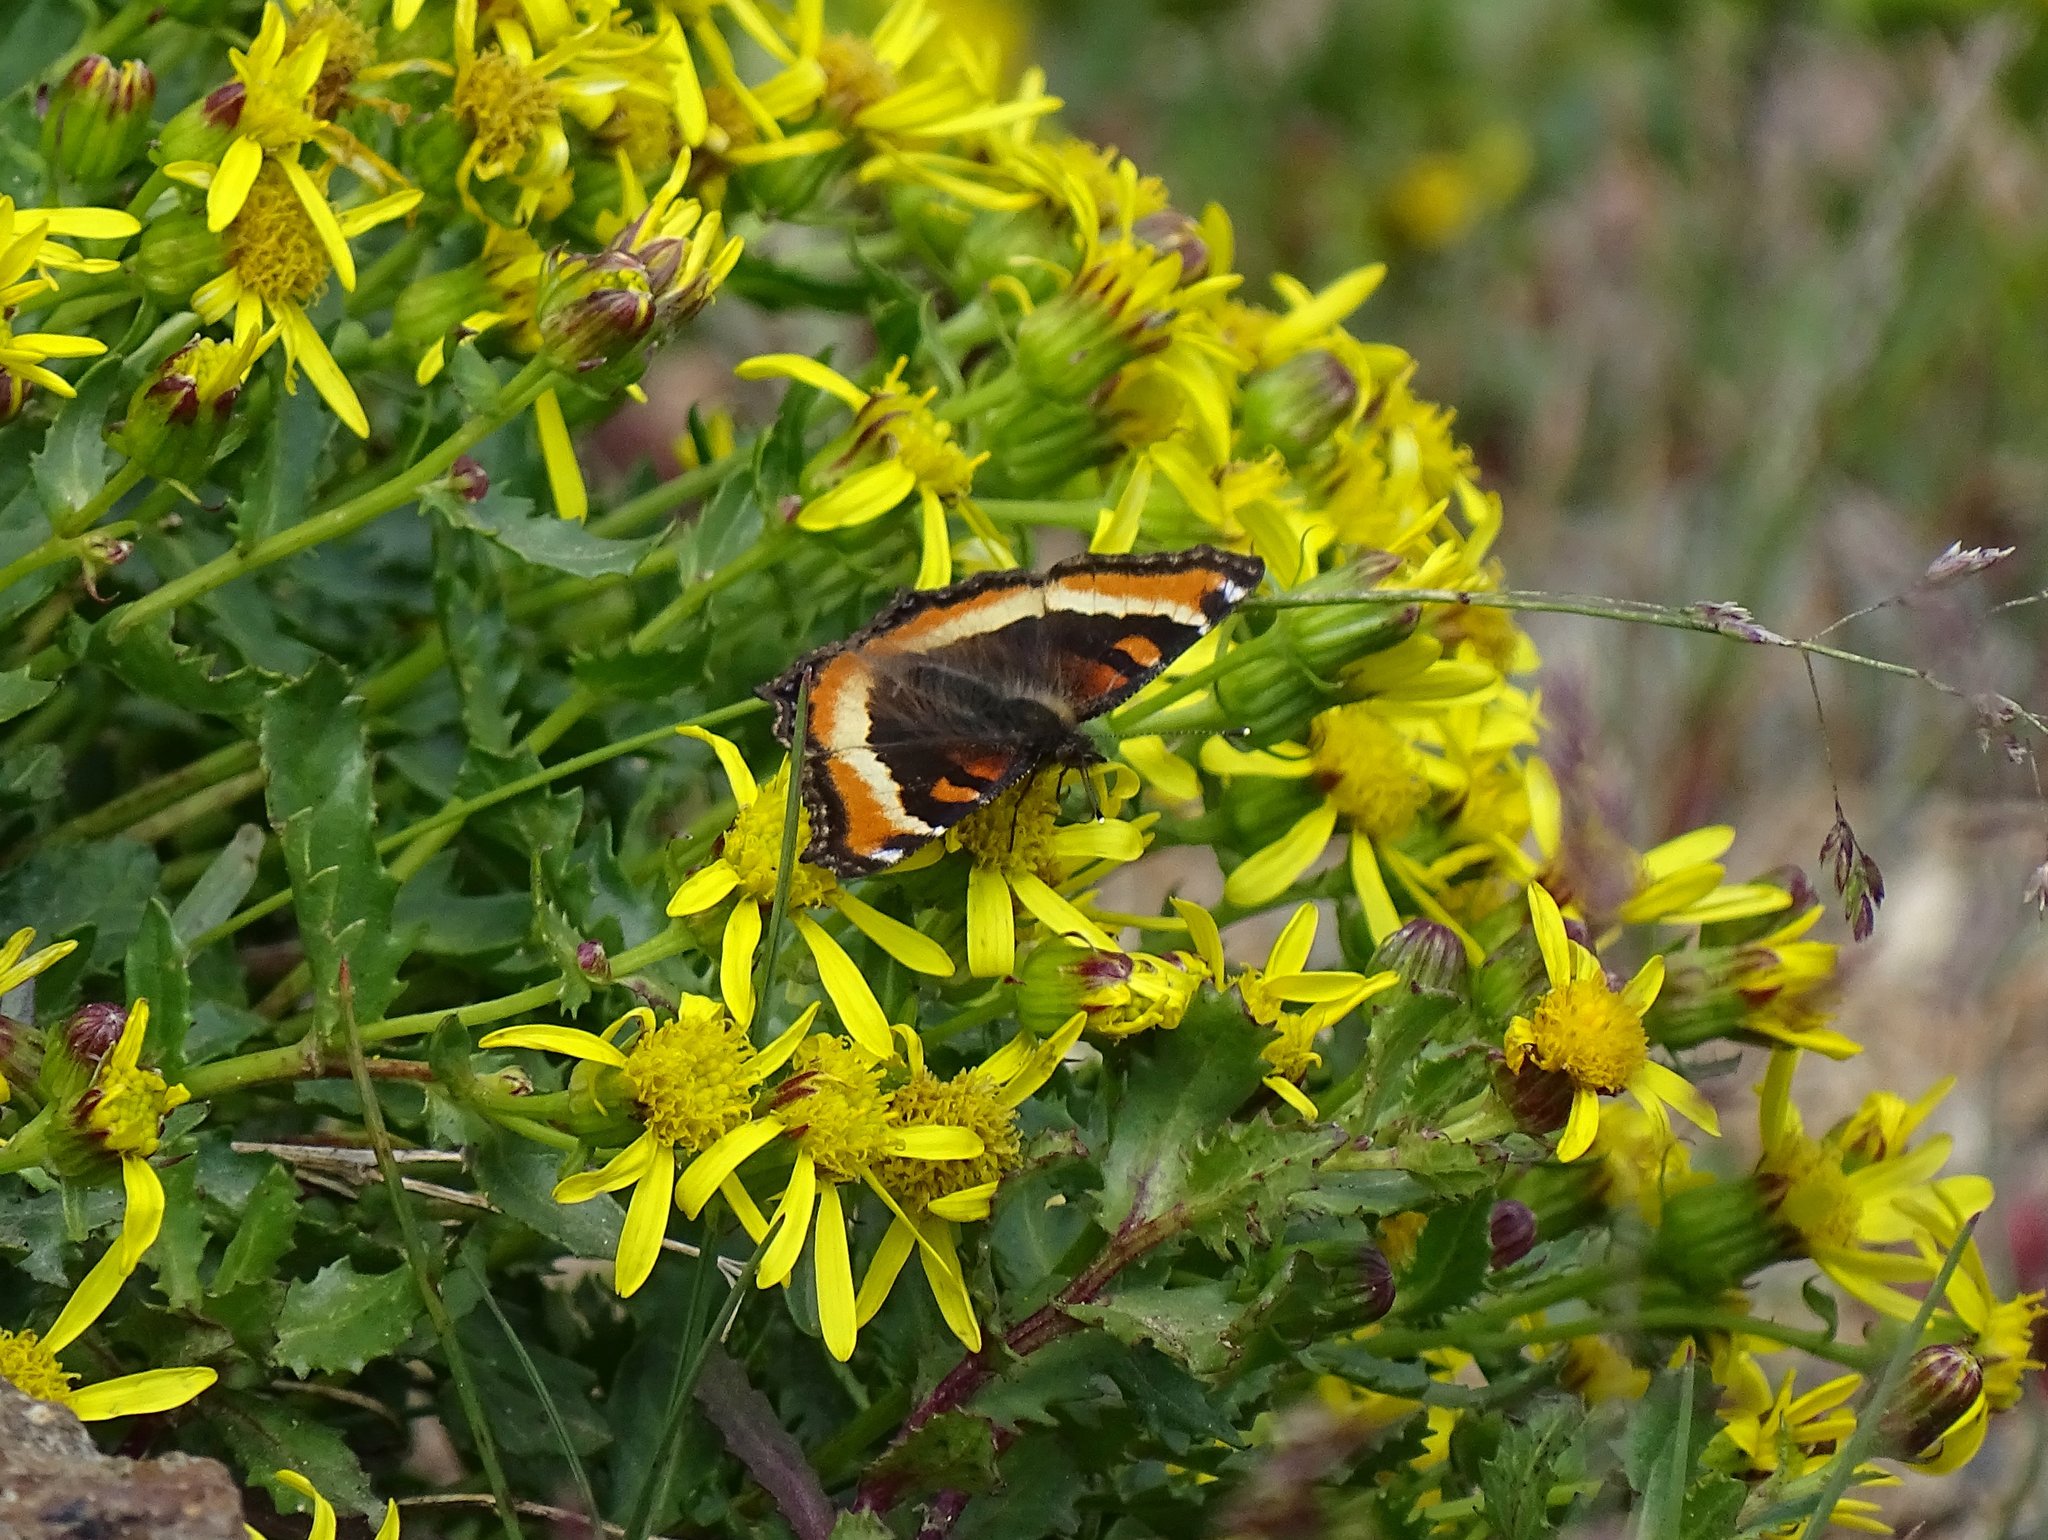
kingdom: Animalia
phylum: Arthropoda
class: Insecta
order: Lepidoptera
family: Nymphalidae
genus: Aglais
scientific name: Aglais milberti
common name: Milbert's tortoiseshell
